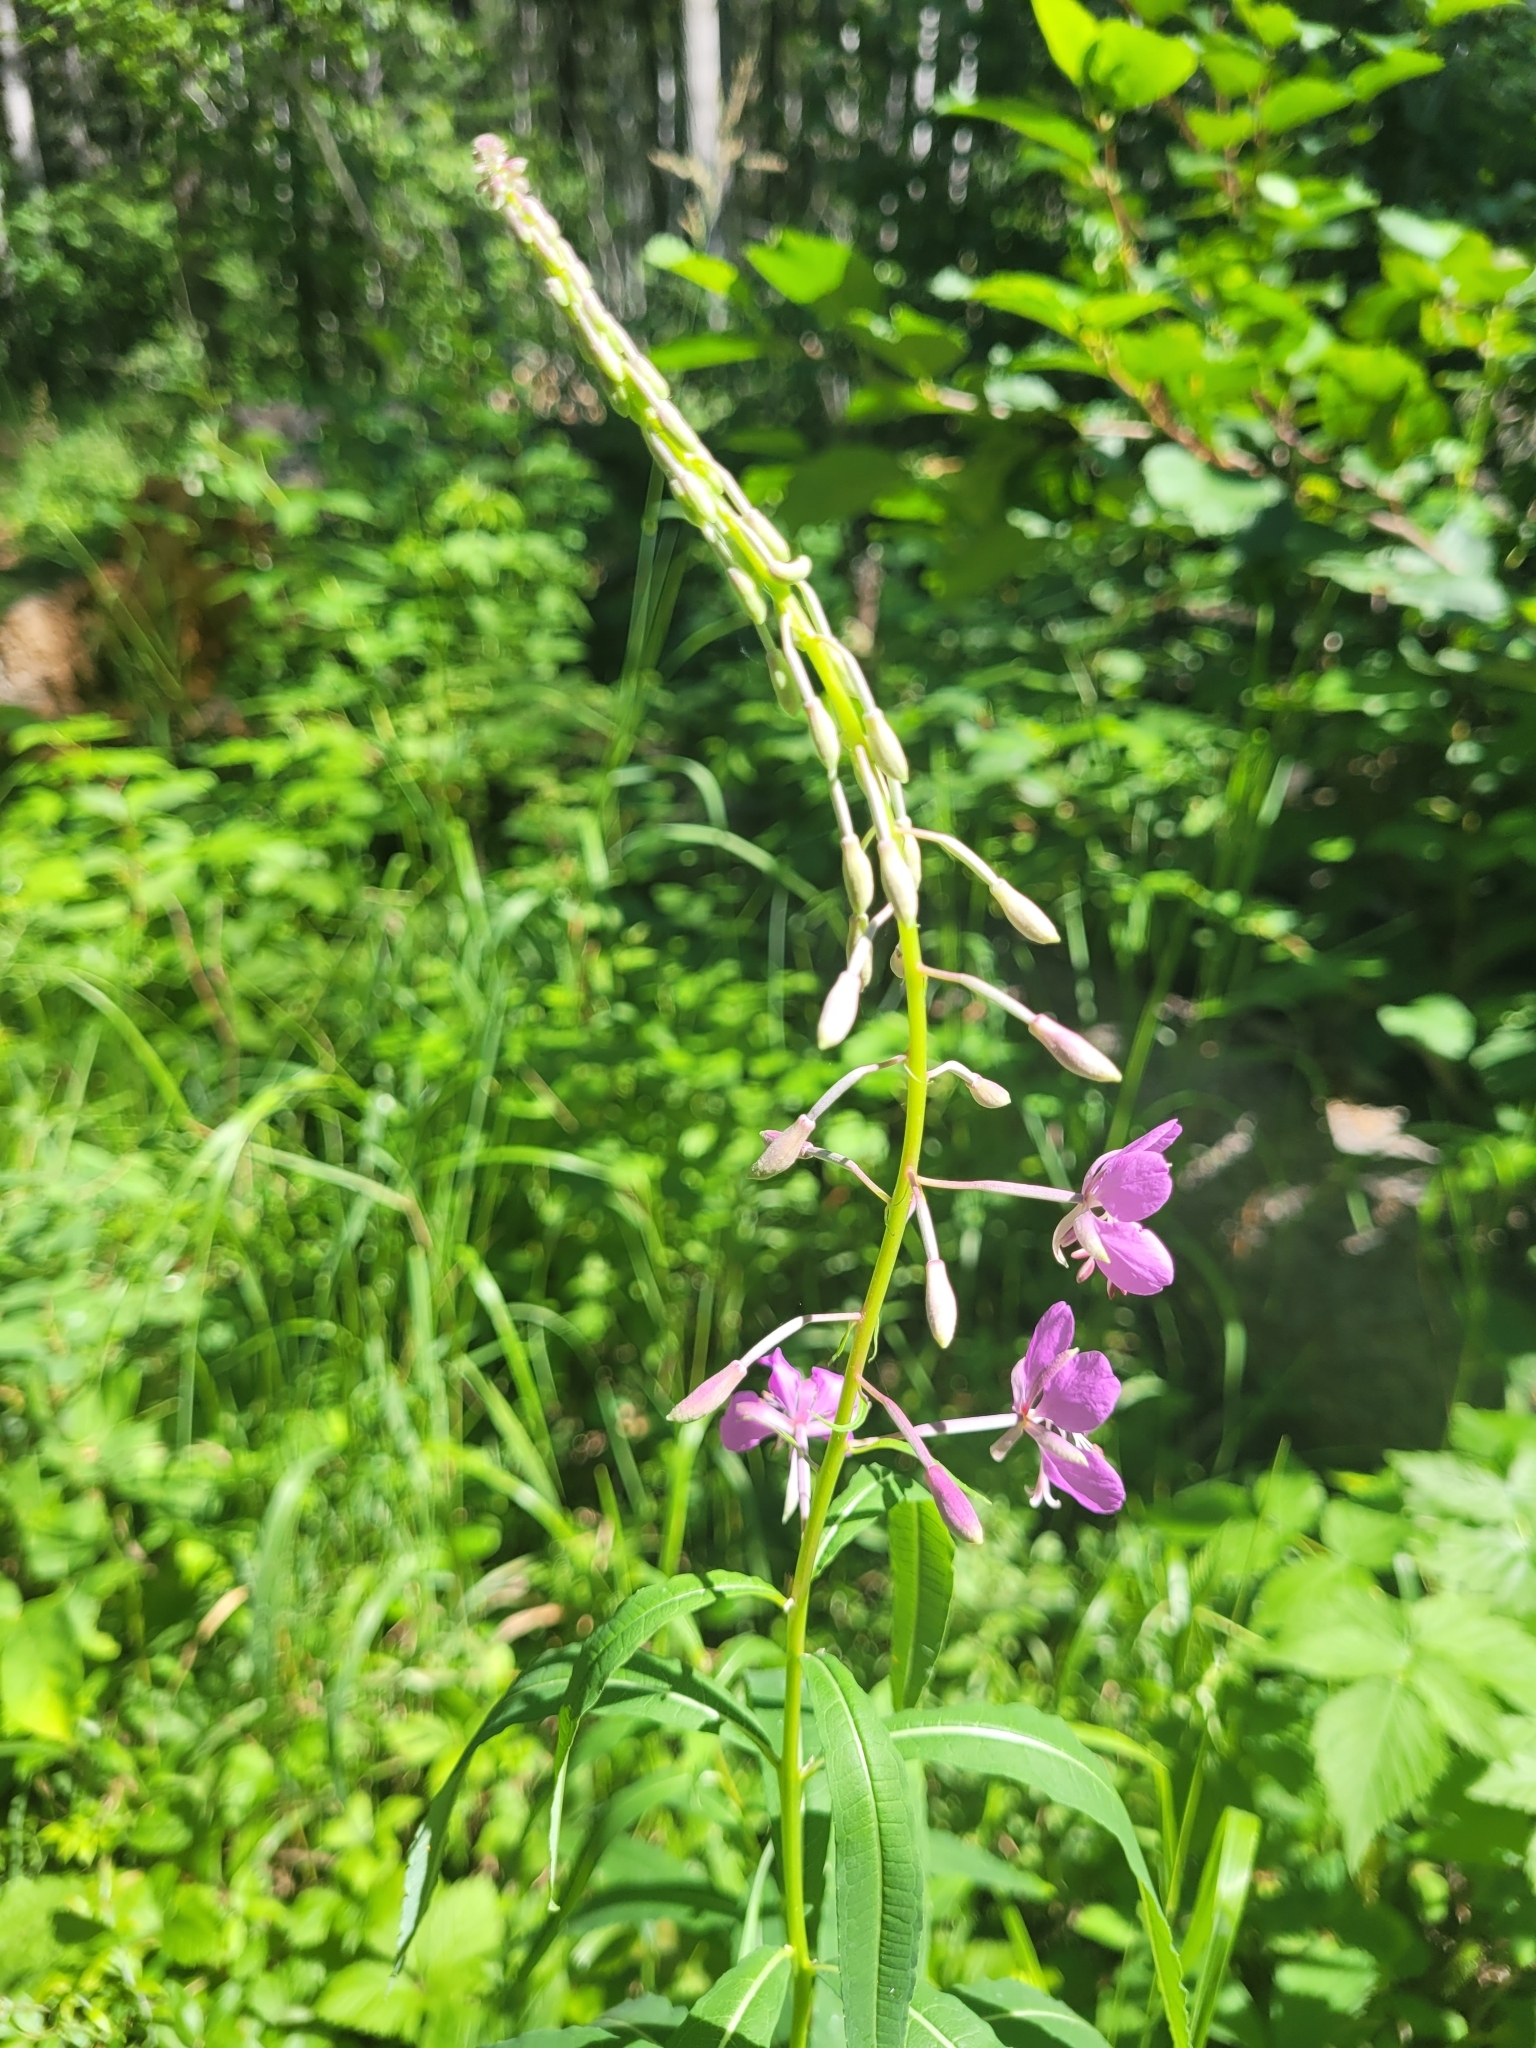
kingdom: Plantae
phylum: Tracheophyta
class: Magnoliopsida
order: Myrtales
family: Onagraceae
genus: Chamaenerion
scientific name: Chamaenerion angustifolium
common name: Fireweed
